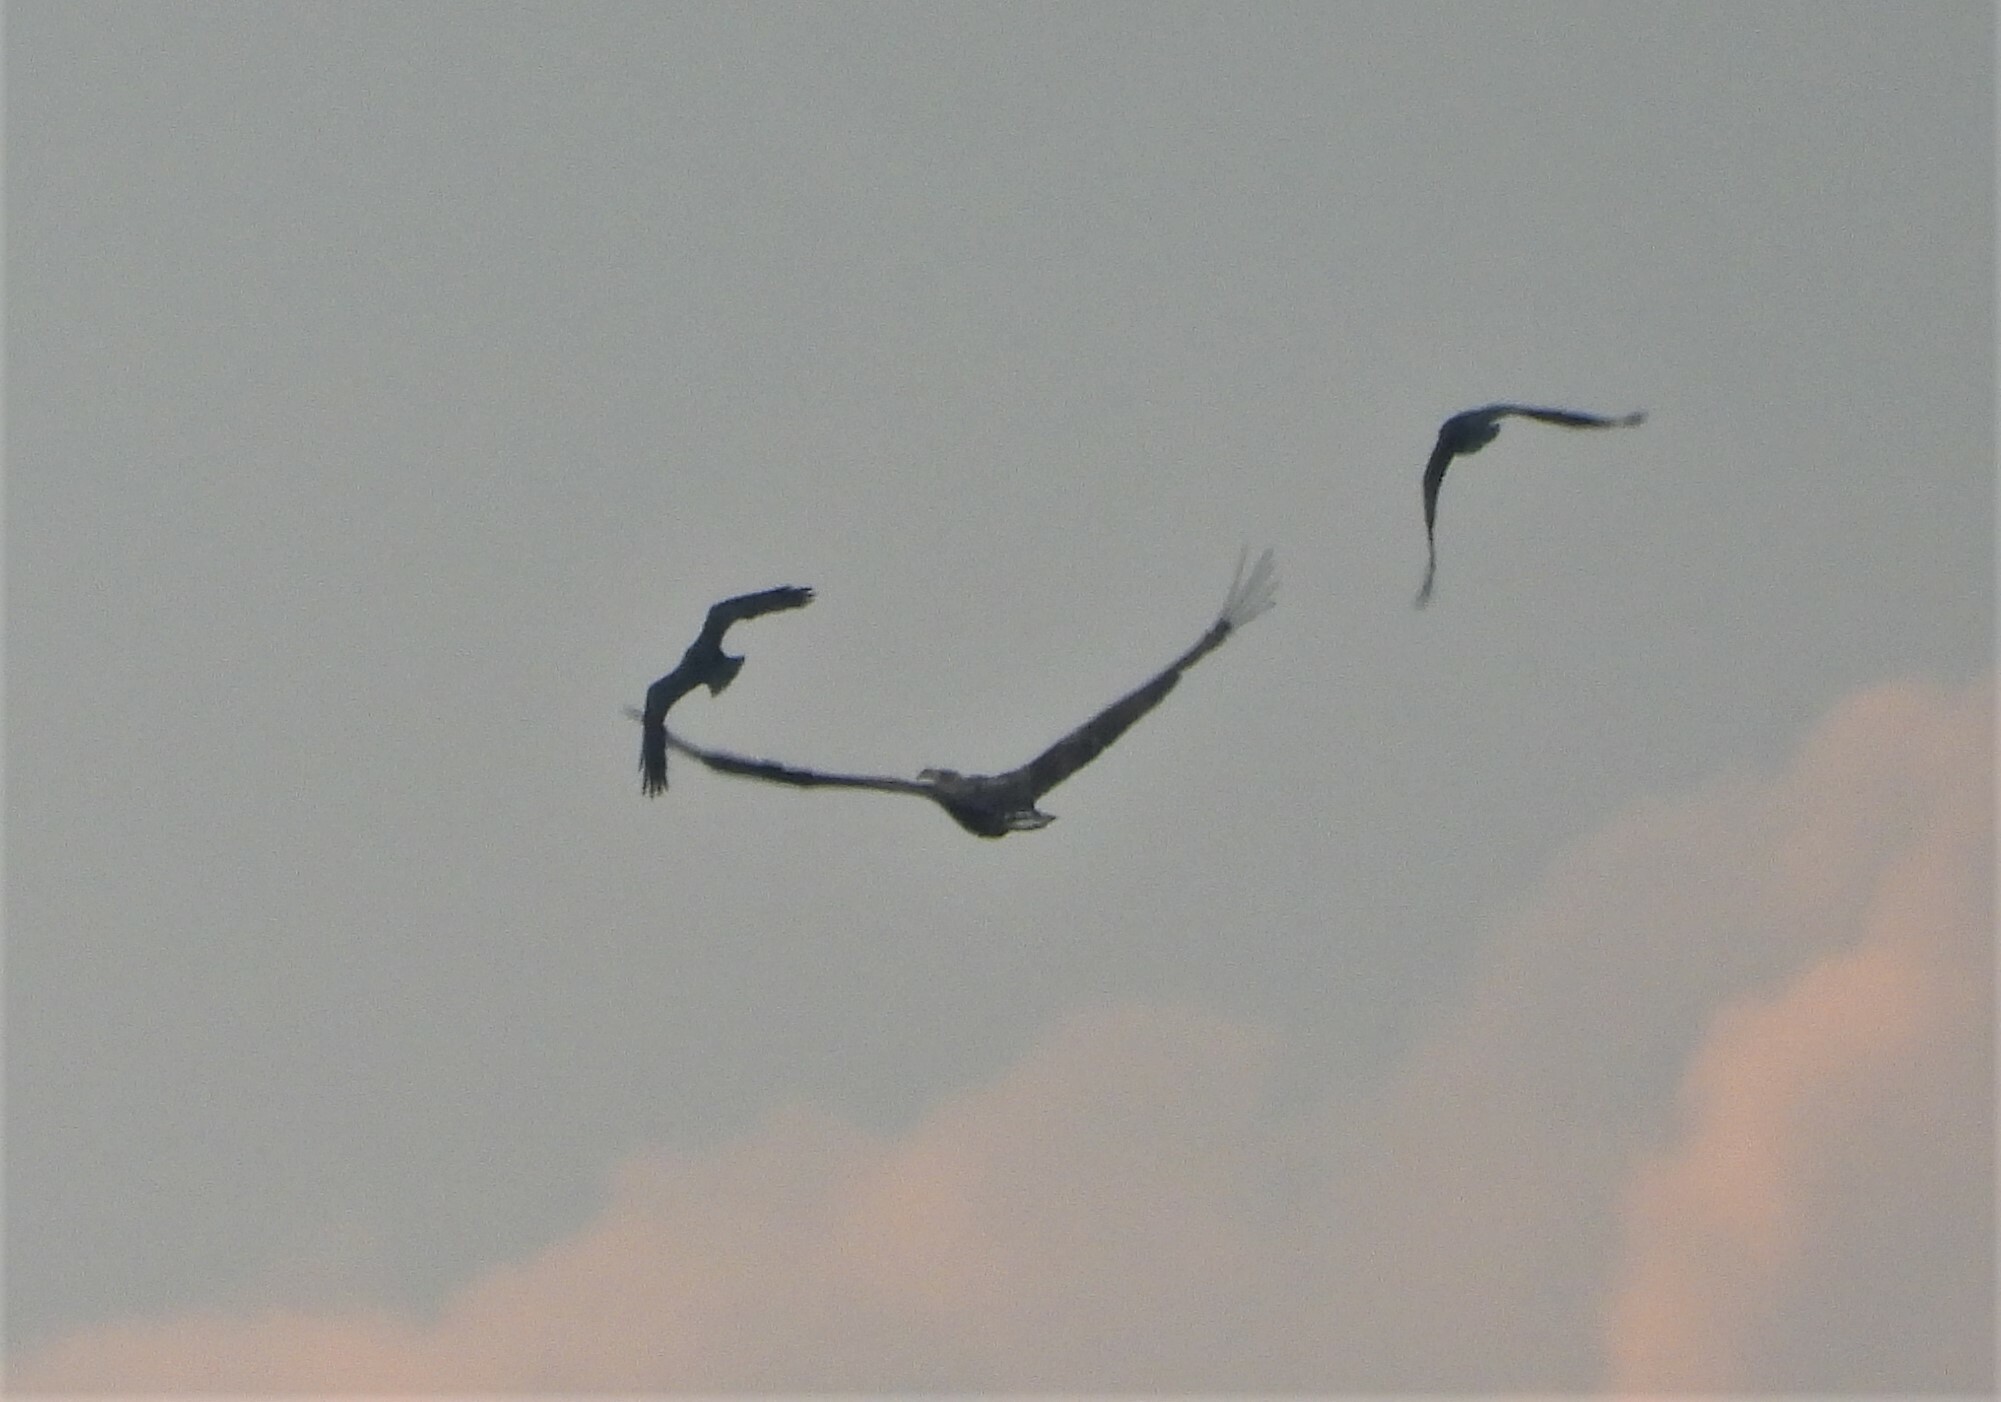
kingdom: Animalia
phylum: Chordata
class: Aves
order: Accipitriformes
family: Accipitridae
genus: Haliaeetus
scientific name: Haliaeetus albicilla
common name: White-tailed eagle
